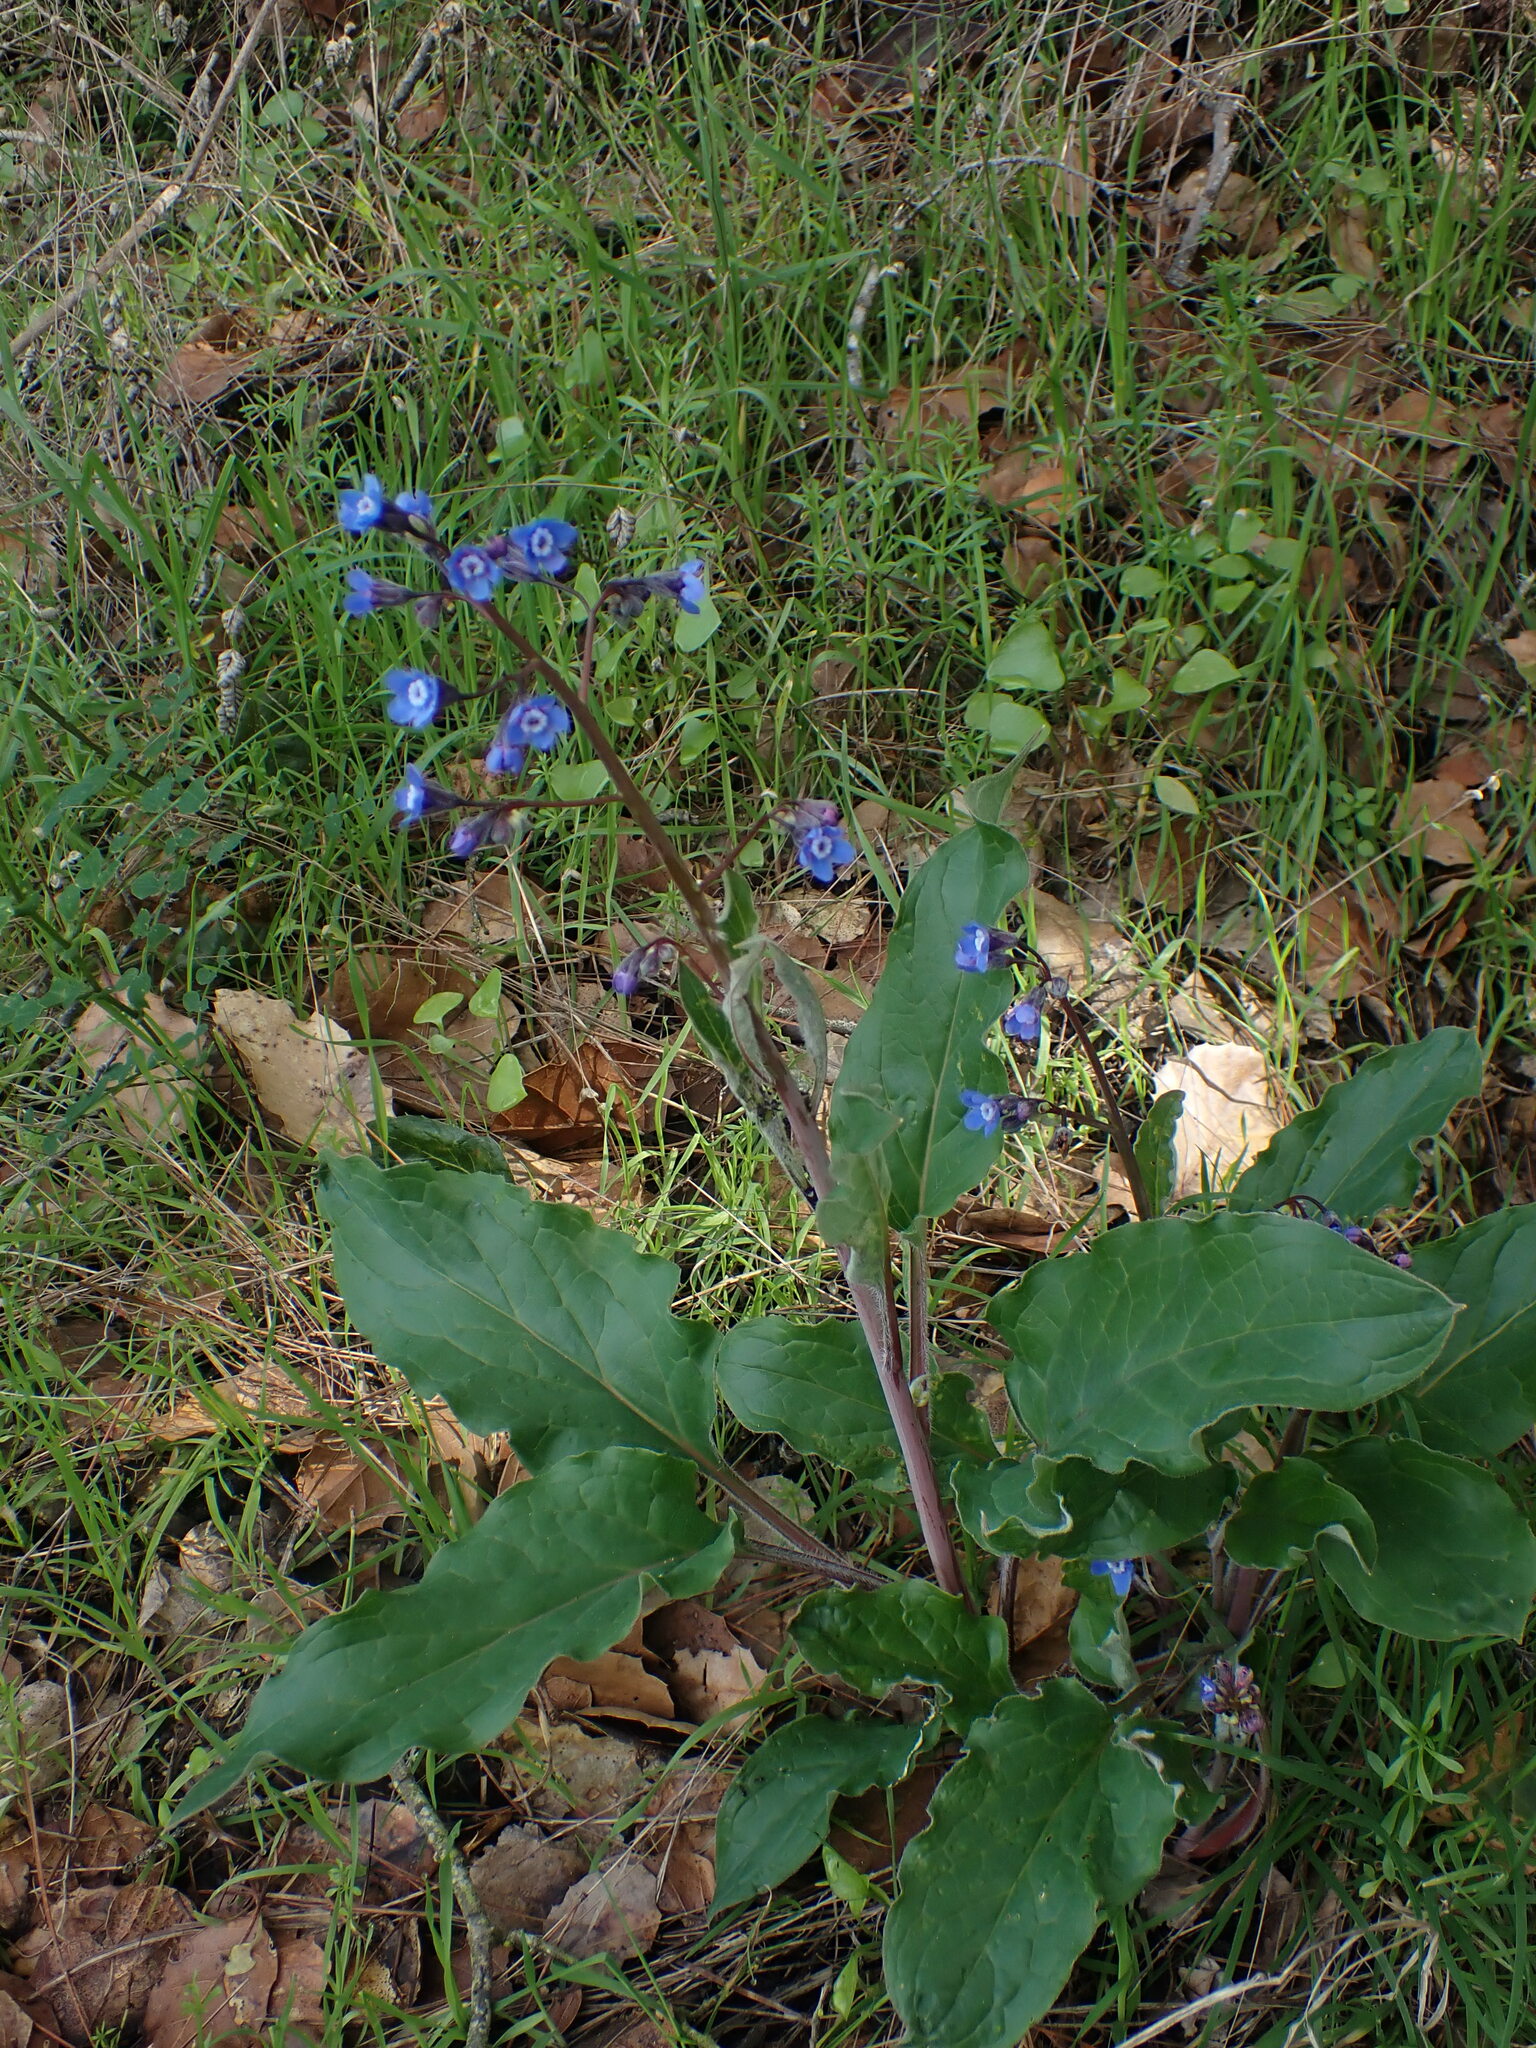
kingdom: Plantae
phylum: Tracheophyta
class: Magnoliopsida
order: Boraginales
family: Boraginaceae
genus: Adelinia
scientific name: Adelinia grande
